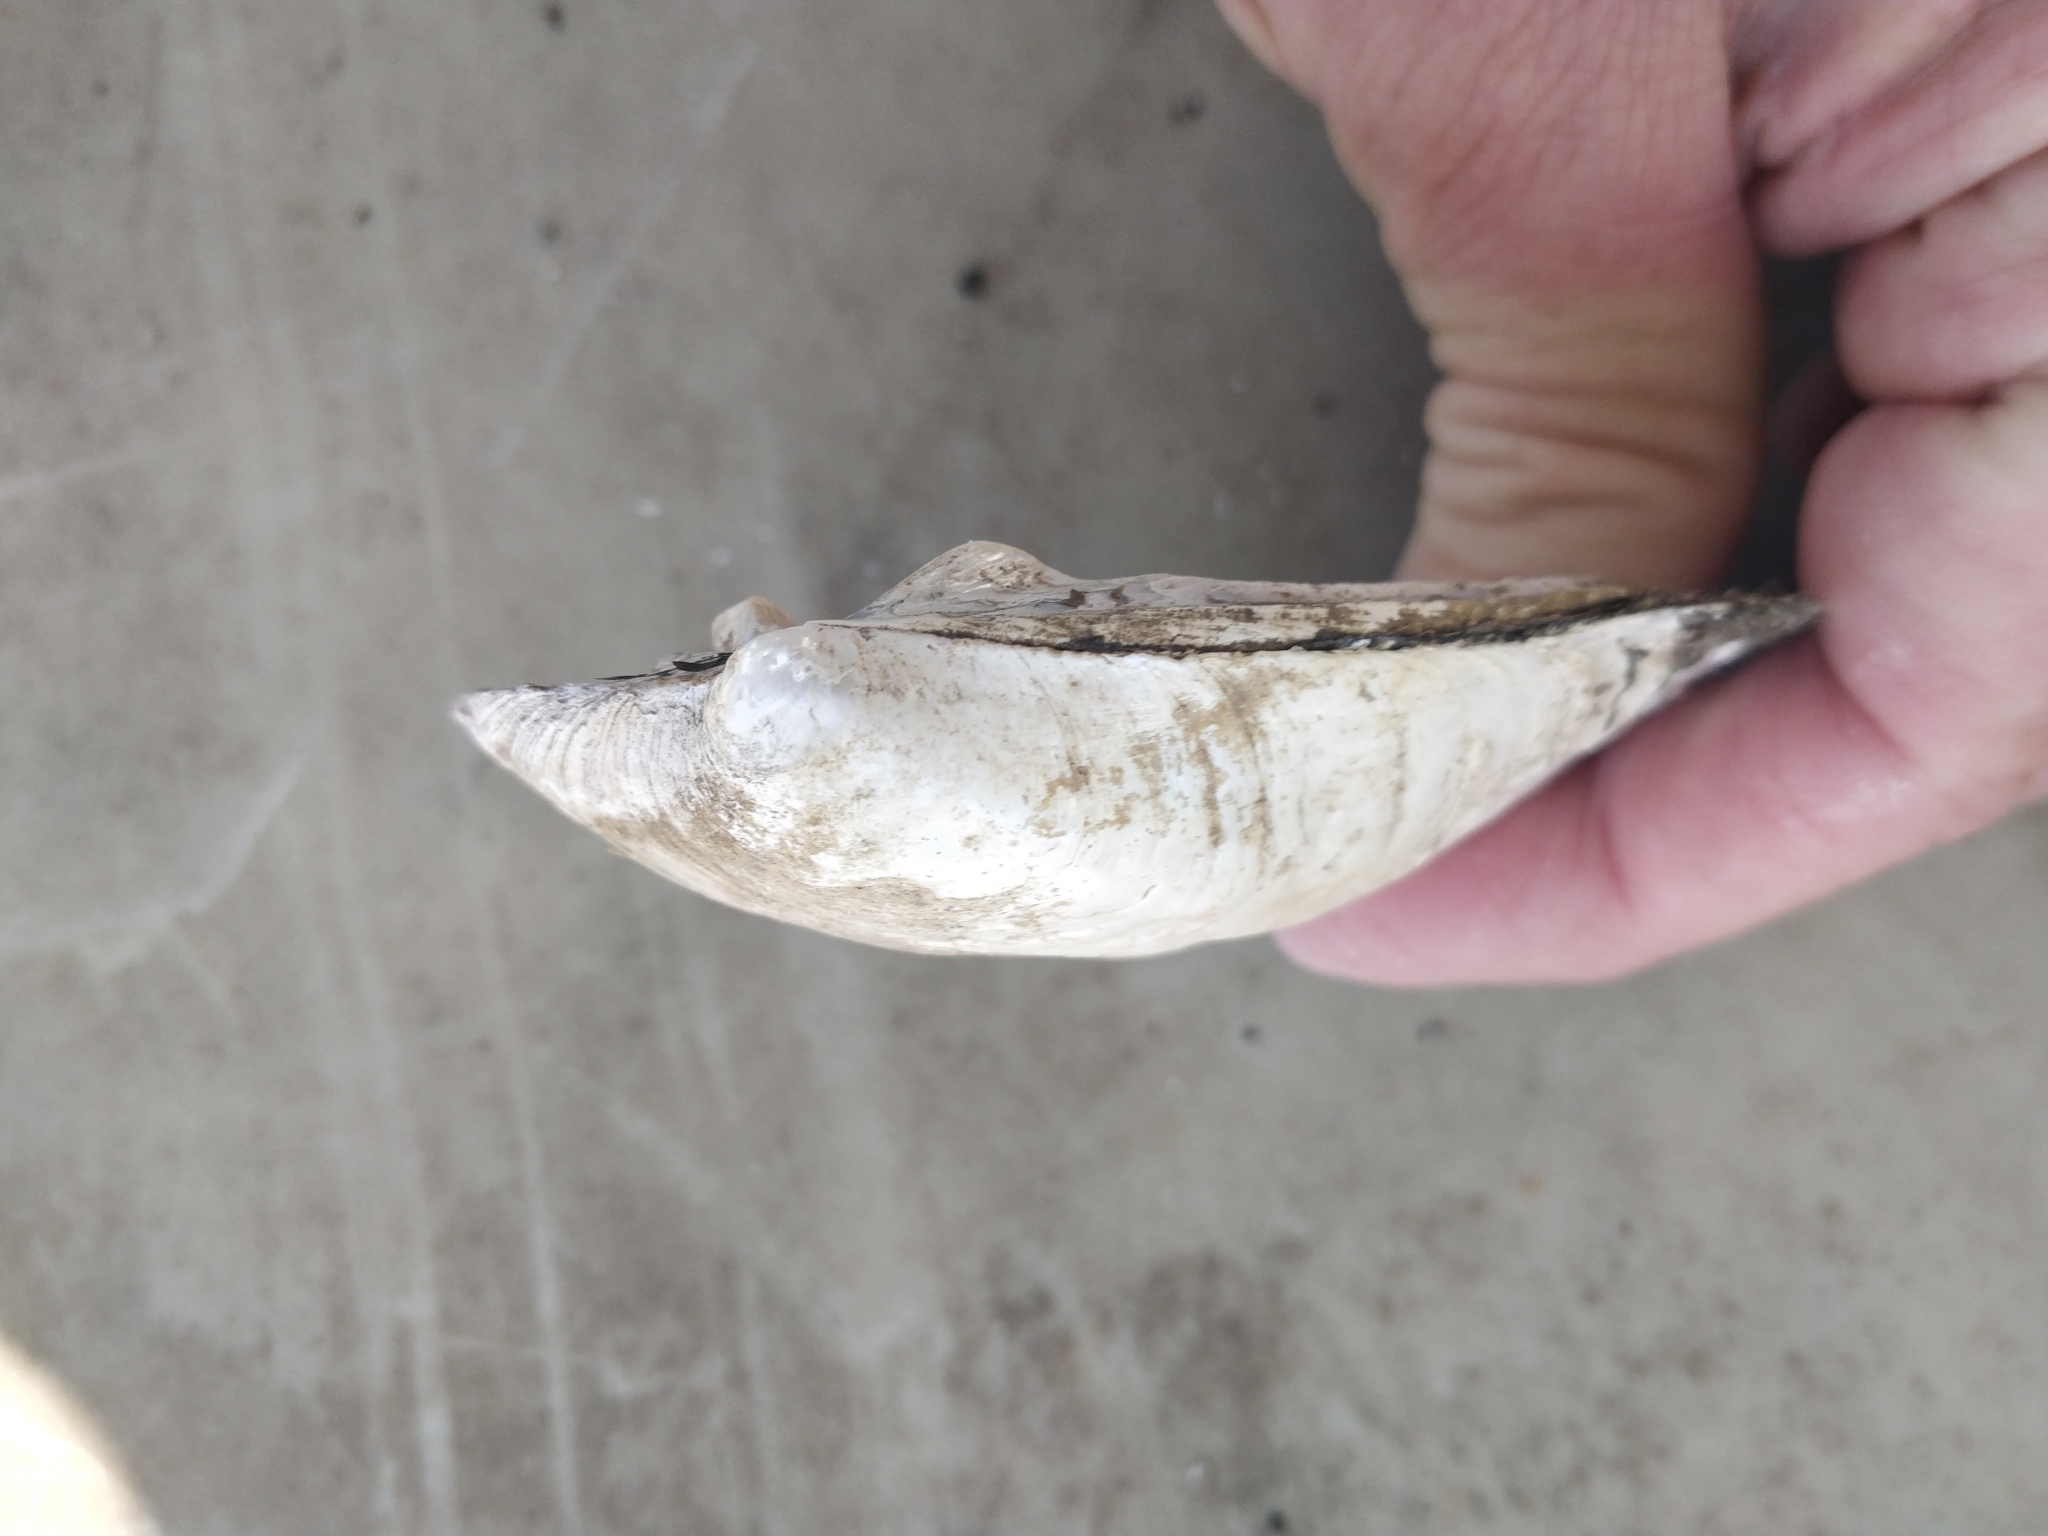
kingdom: Animalia
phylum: Mollusca
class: Bivalvia
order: Unionida
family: Unionidae
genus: Amblema
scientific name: Amblema plicata
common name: Threeridge
